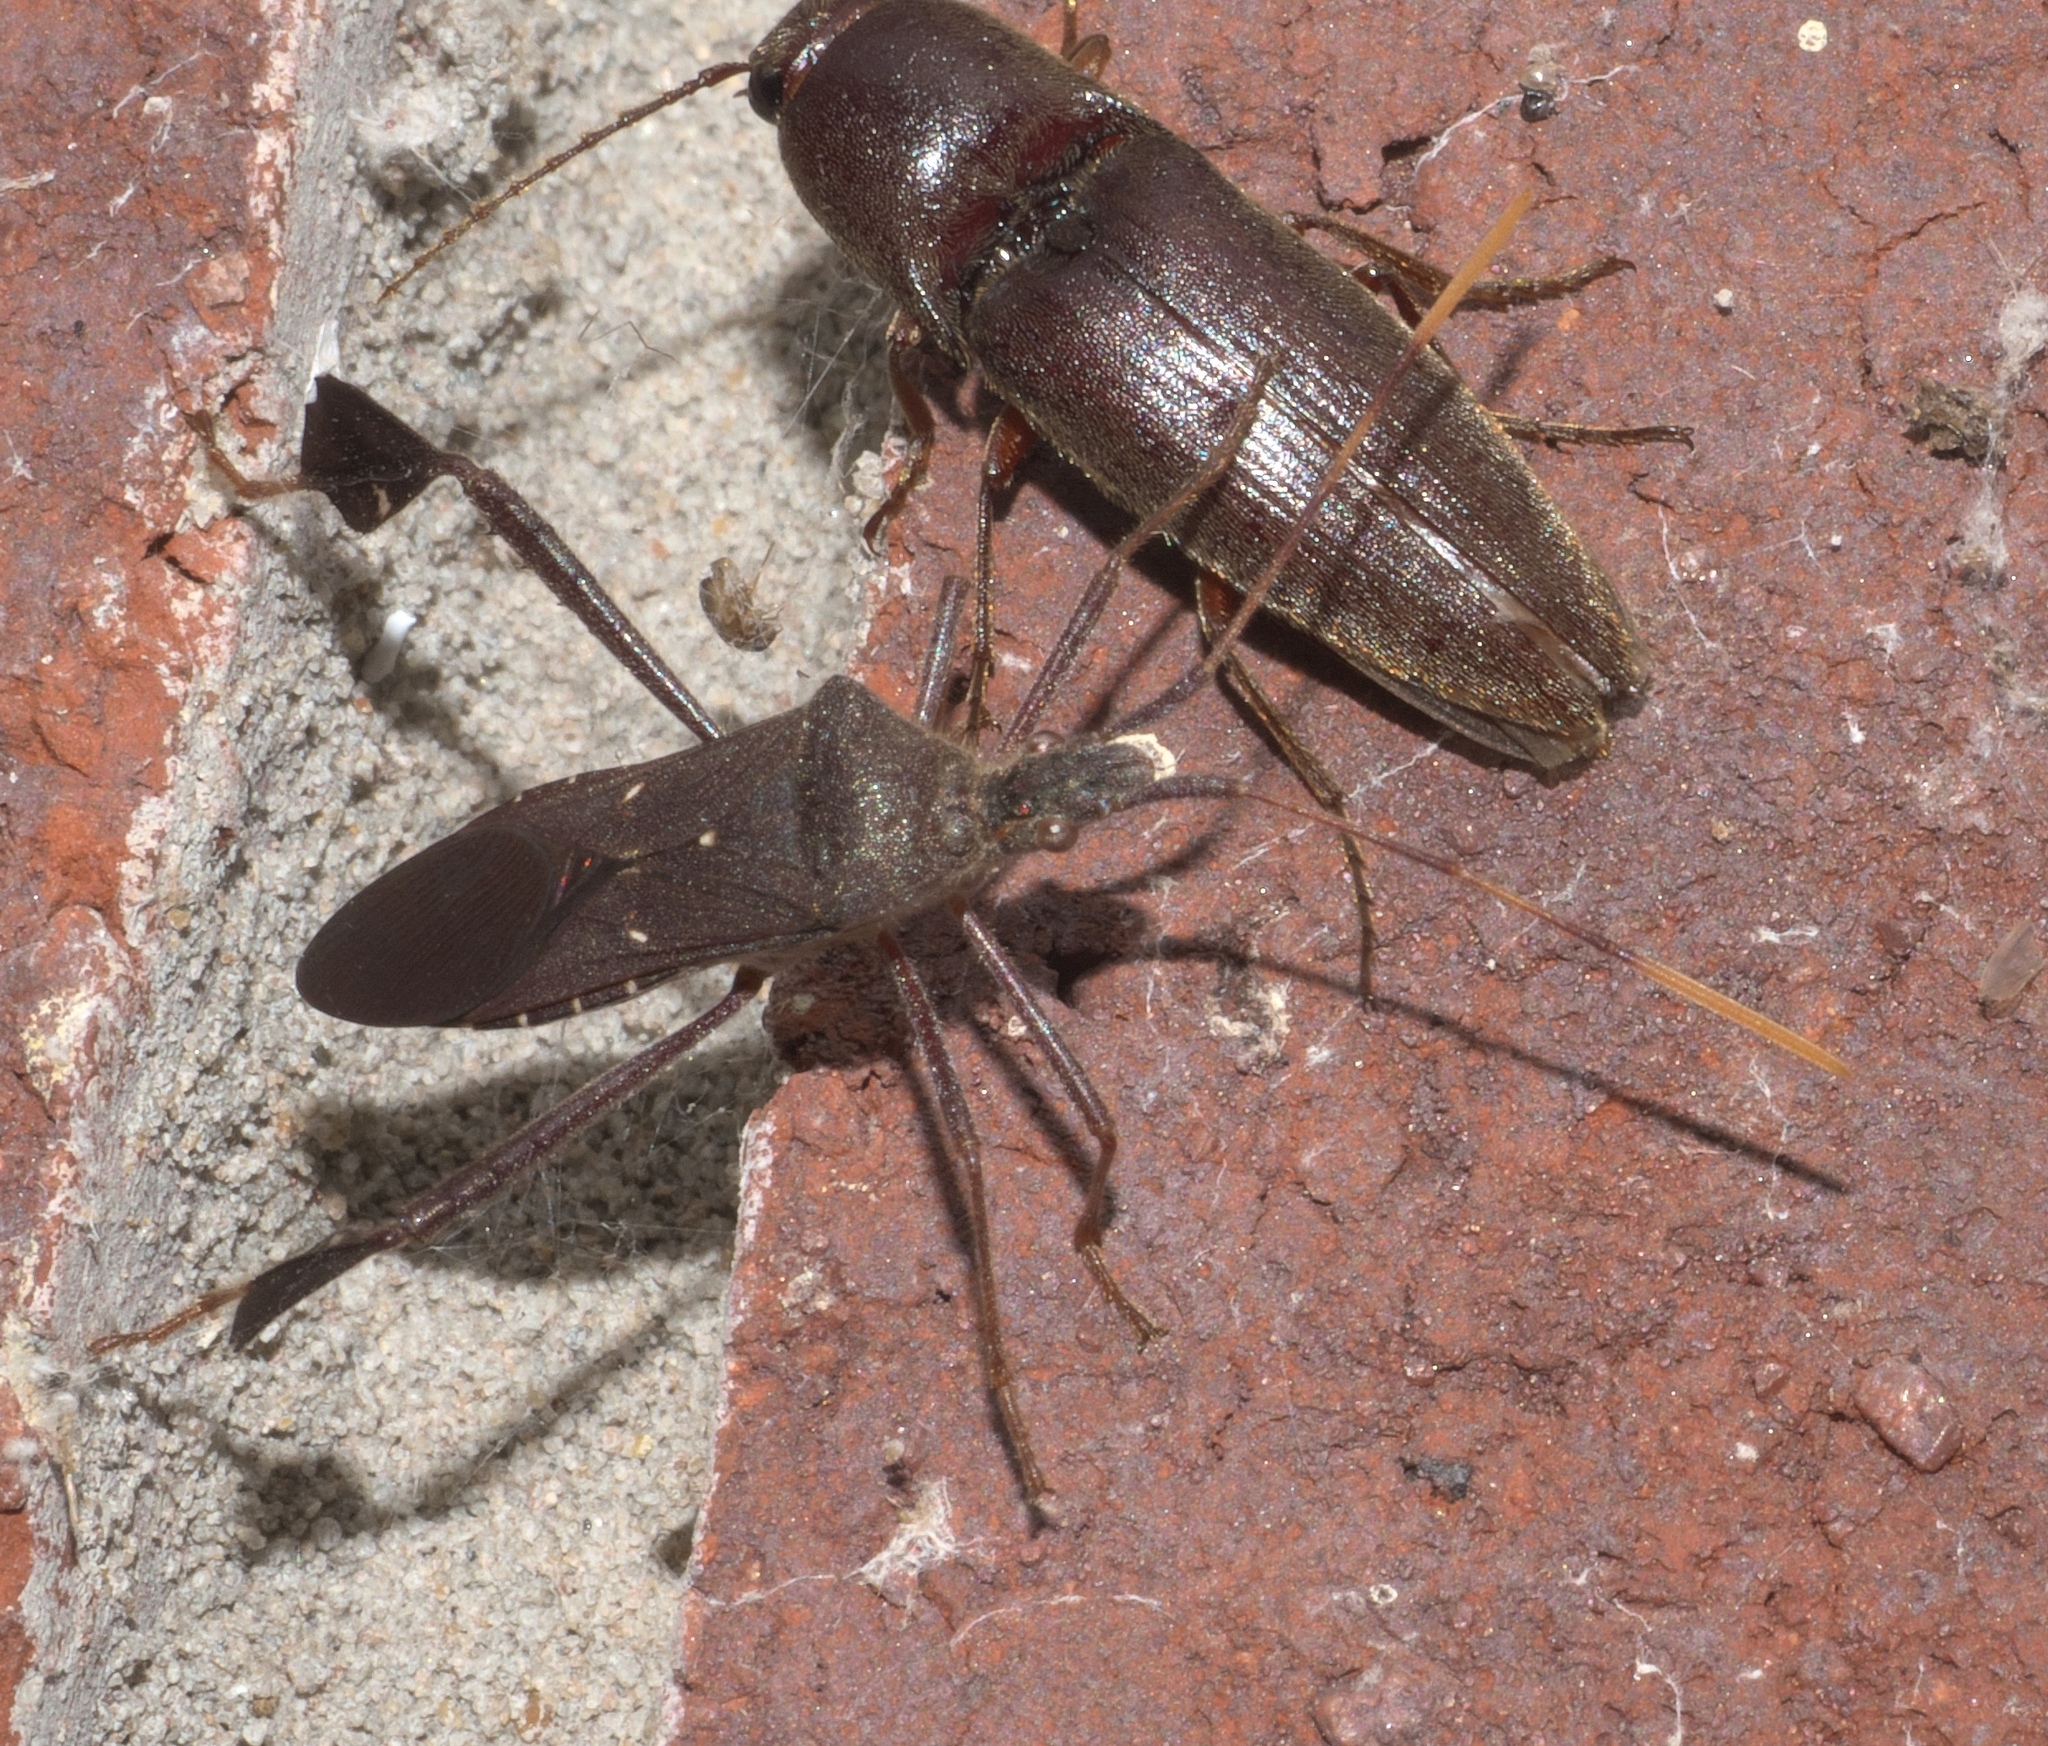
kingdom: Animalia
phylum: Arthropoda
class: Insecta
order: Hemiptera
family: Coreidae
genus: Leptoglossus
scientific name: Leptoglossus oppositus
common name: Northern leaf-footed bug
